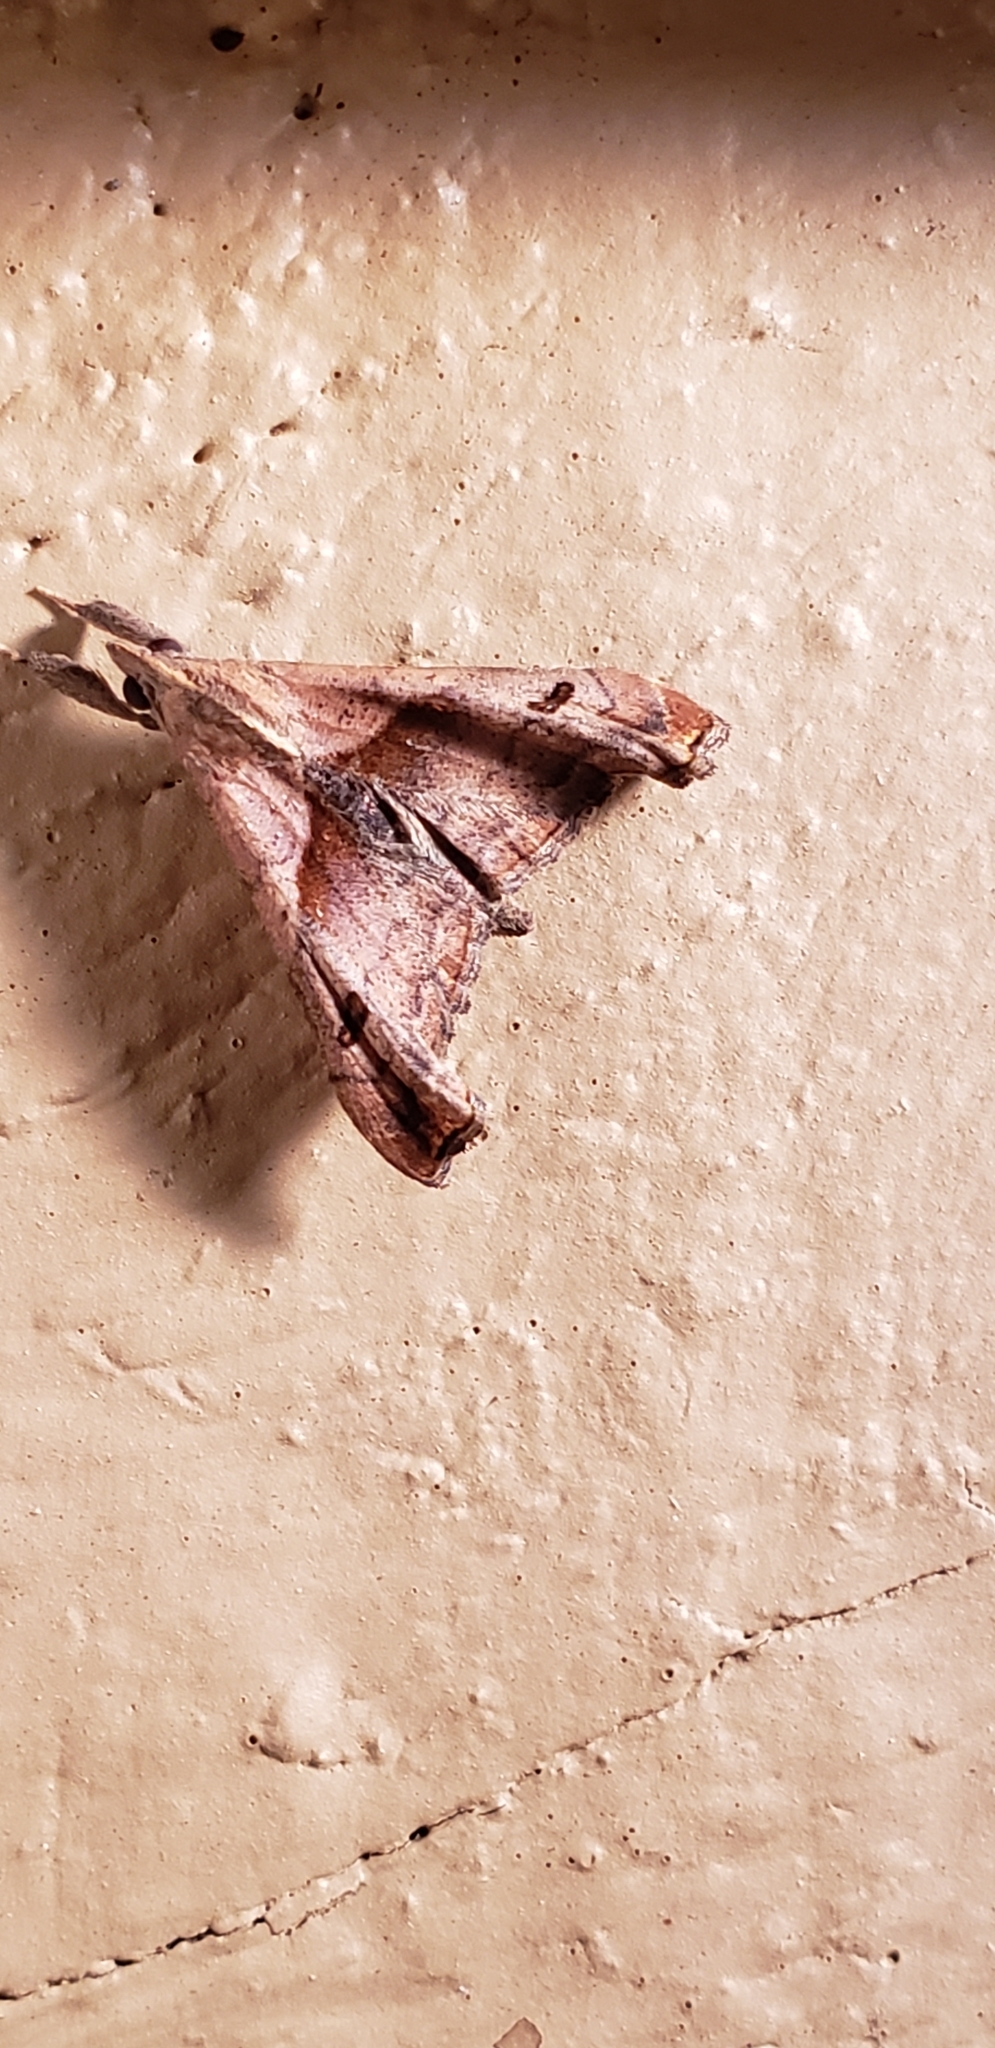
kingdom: Animalia
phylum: Arthropoda
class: Insecta
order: Lepidoptera
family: Erebidae
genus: Palthis
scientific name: Palthis angulalis
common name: Dark-spotted palthis moth
